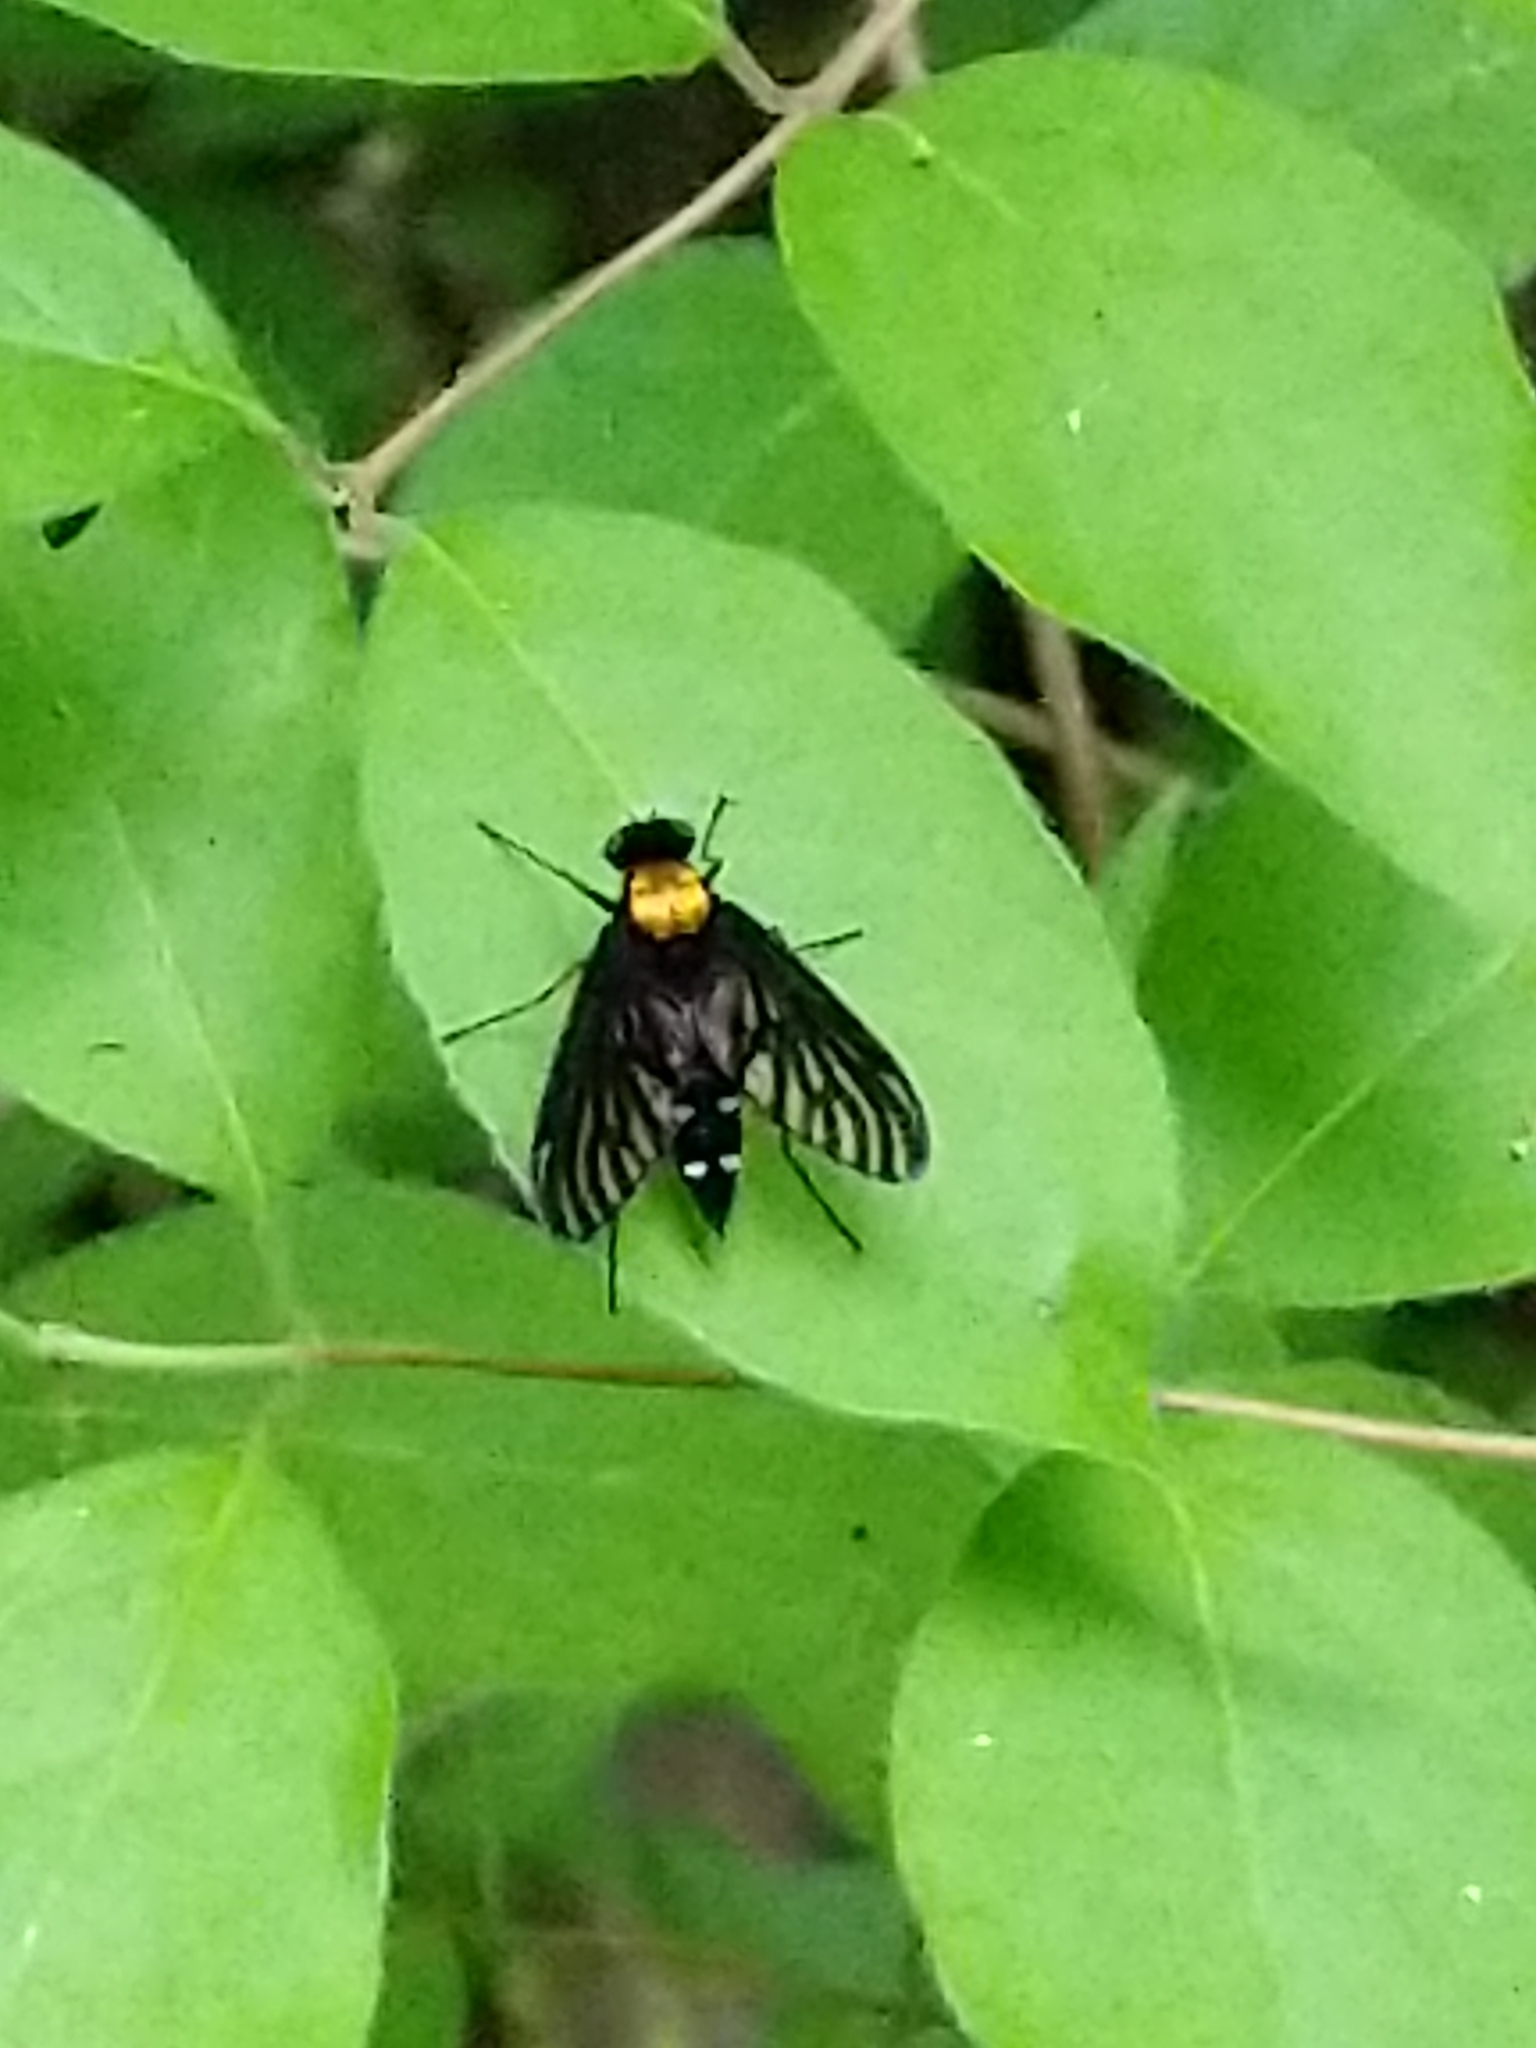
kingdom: Animalia
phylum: Arthropoda
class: Insecta
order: Diptera
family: Rhagionidae
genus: Chrysopilus
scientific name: Chrysopilus thoracicus
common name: Golden-backed snipe fly
